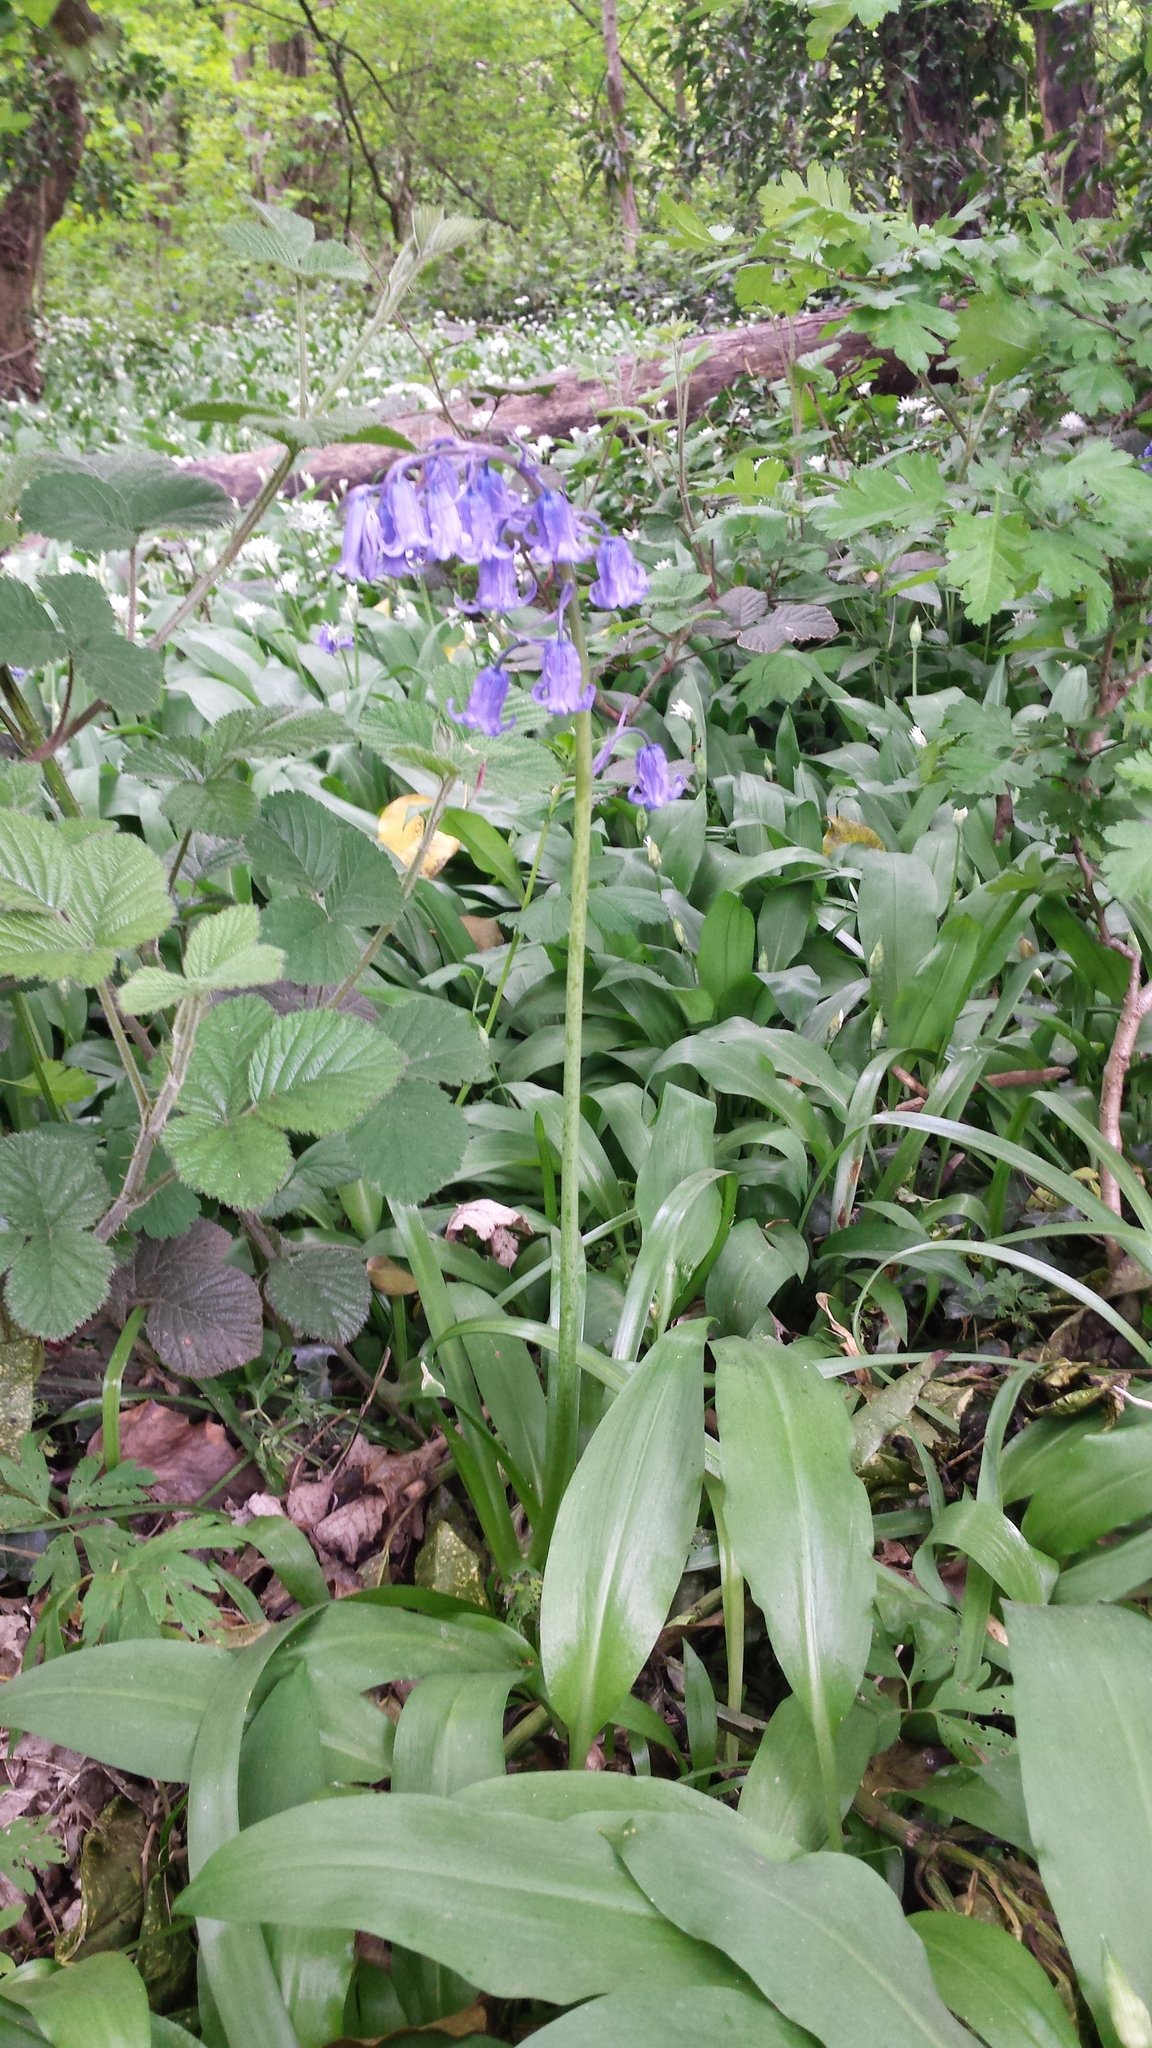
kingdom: Plantae
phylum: Tracheophyta
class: Liliopsida
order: Asparagales
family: Asparagaceae
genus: Hyacinthoides
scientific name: Hyacinthoides non-scripta
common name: Bluebell
